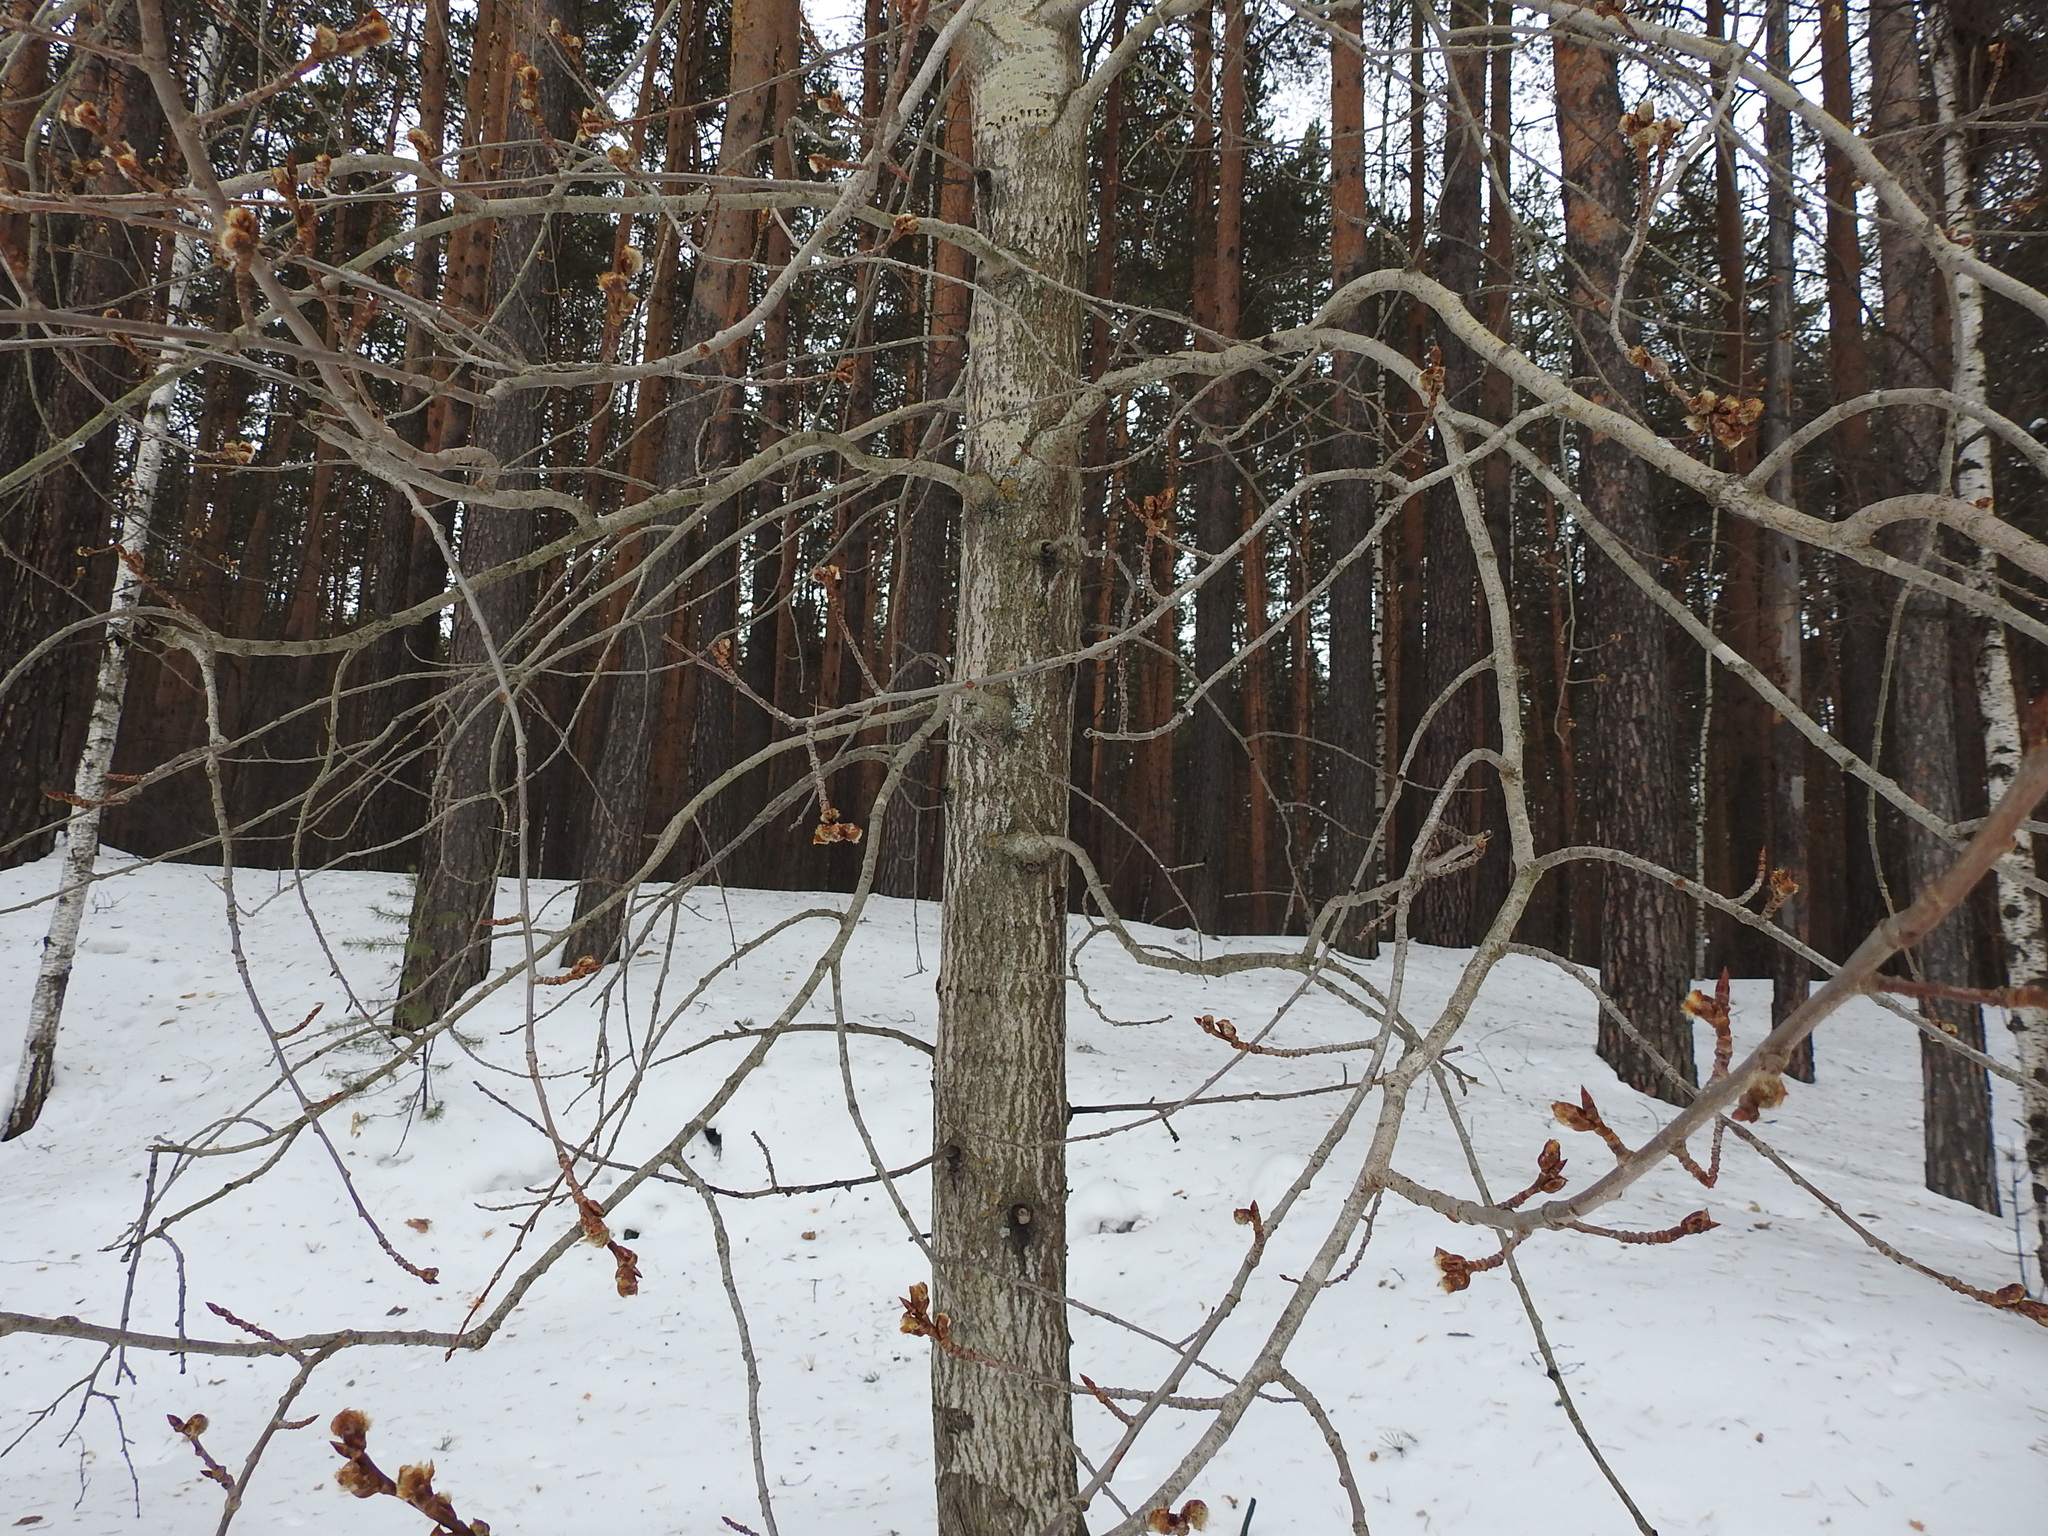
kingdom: Plantae
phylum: Tracheophyta
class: Magnoliopsida
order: Malpighiales
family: Salicaceae
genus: Populus
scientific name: Populus tremula
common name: European aspen
